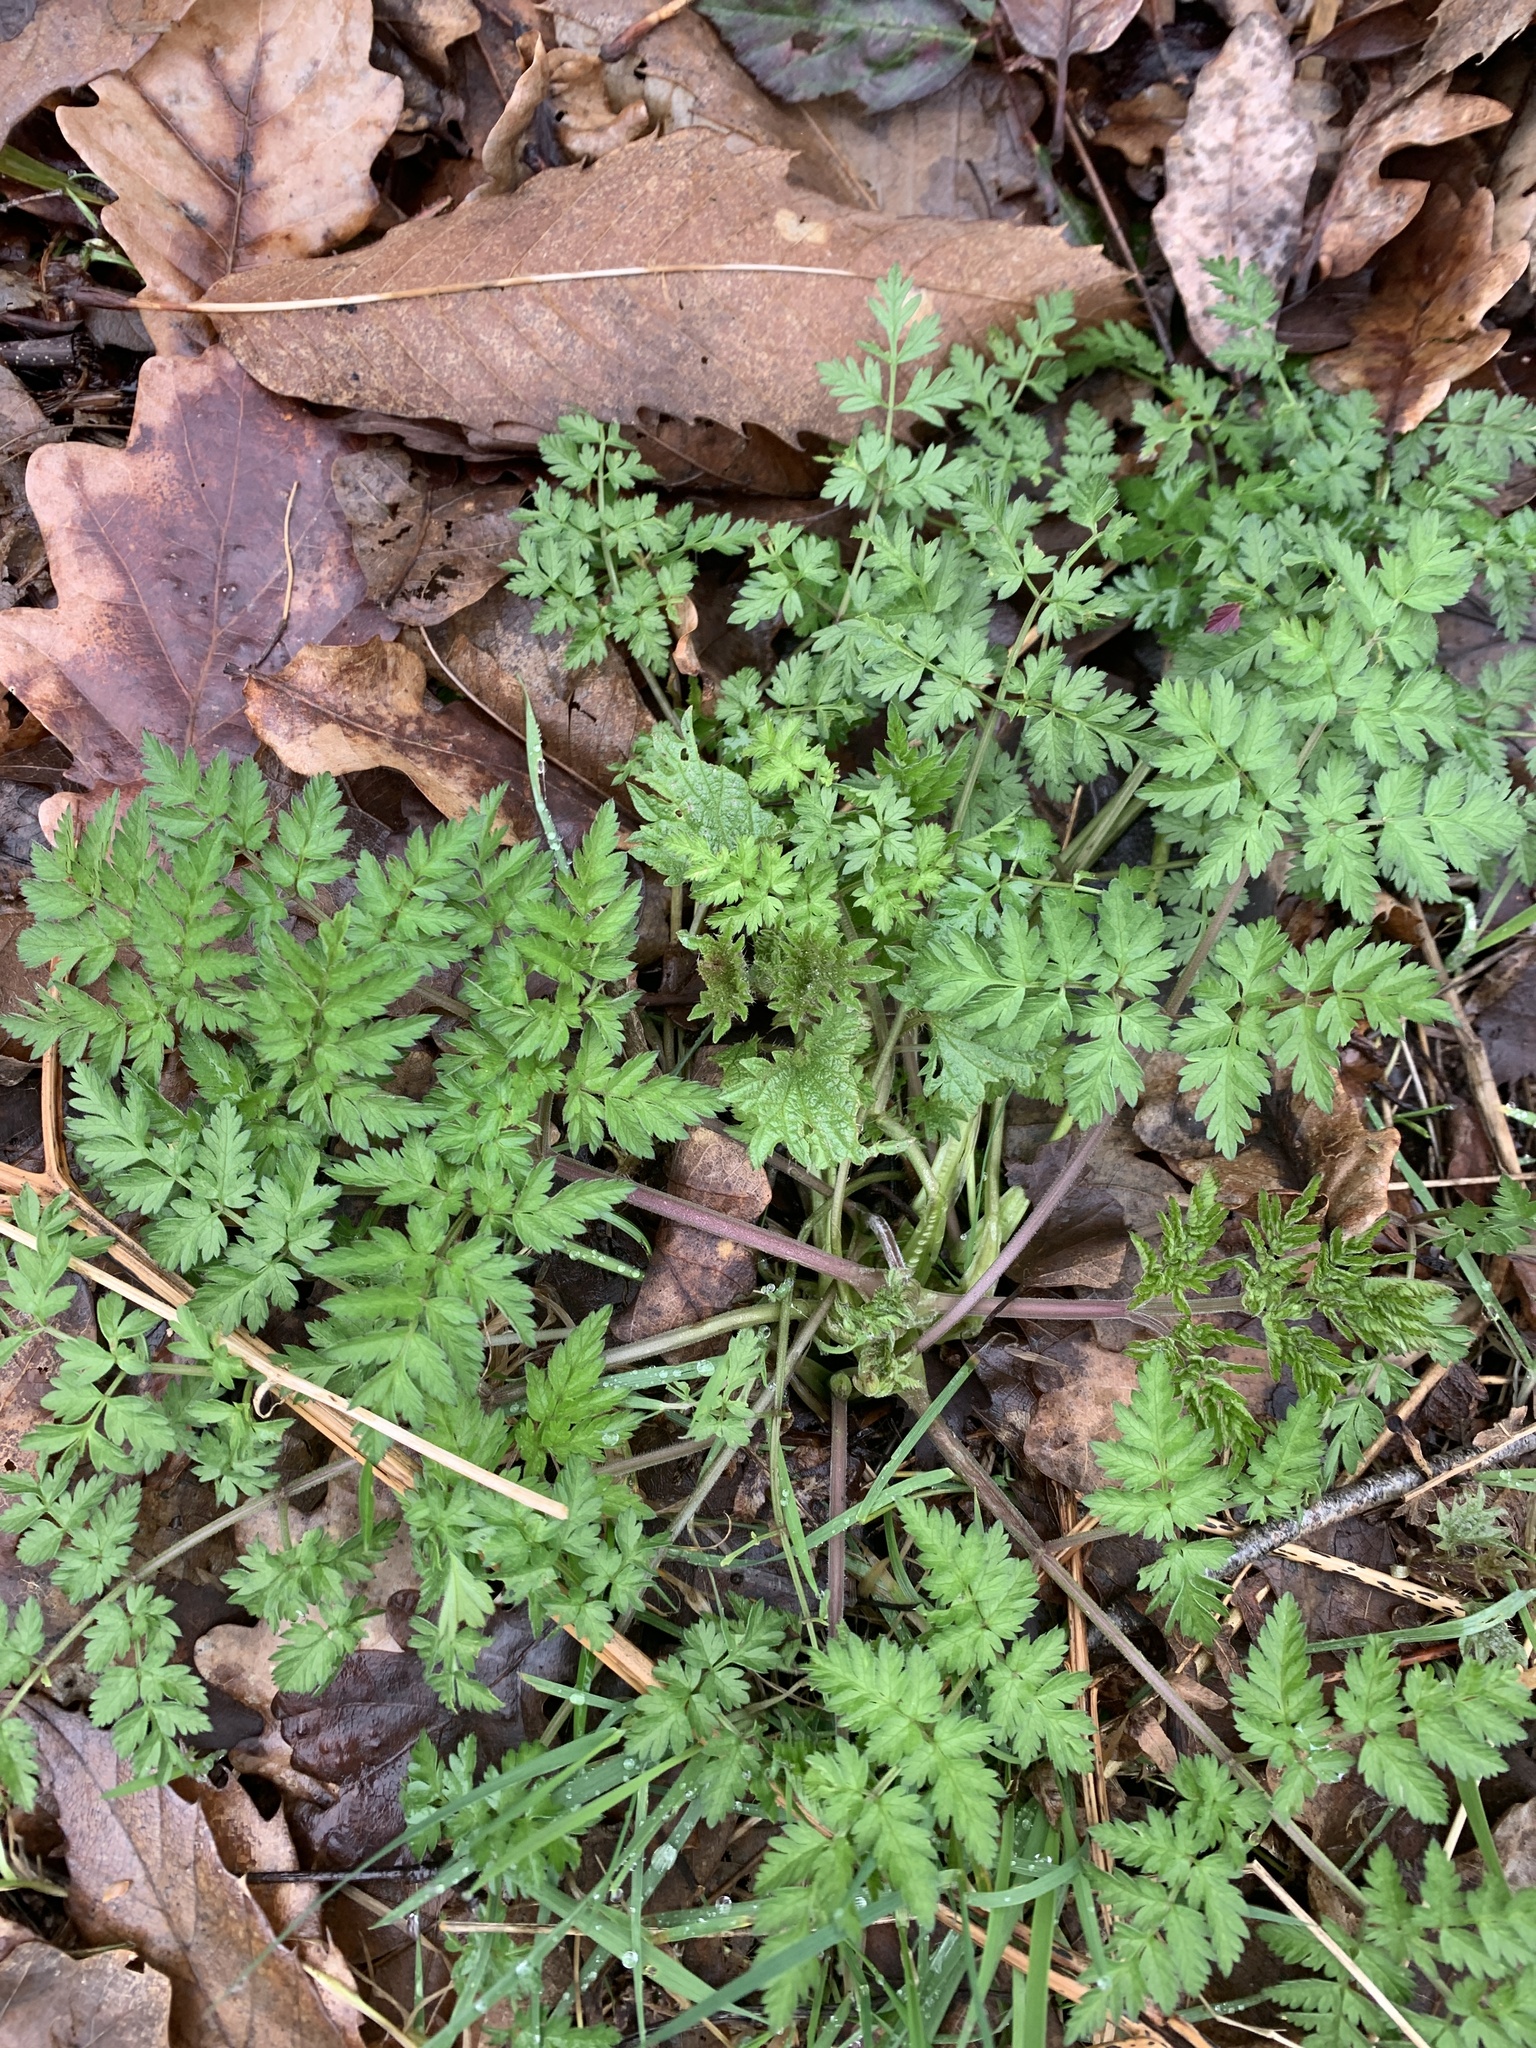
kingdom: Plantae
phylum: Tracheophyta
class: Magnoliopsida
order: Apiales
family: Apiaceae
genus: Anthriscus
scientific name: Anthriscus sylvestris
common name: Cow parsley
